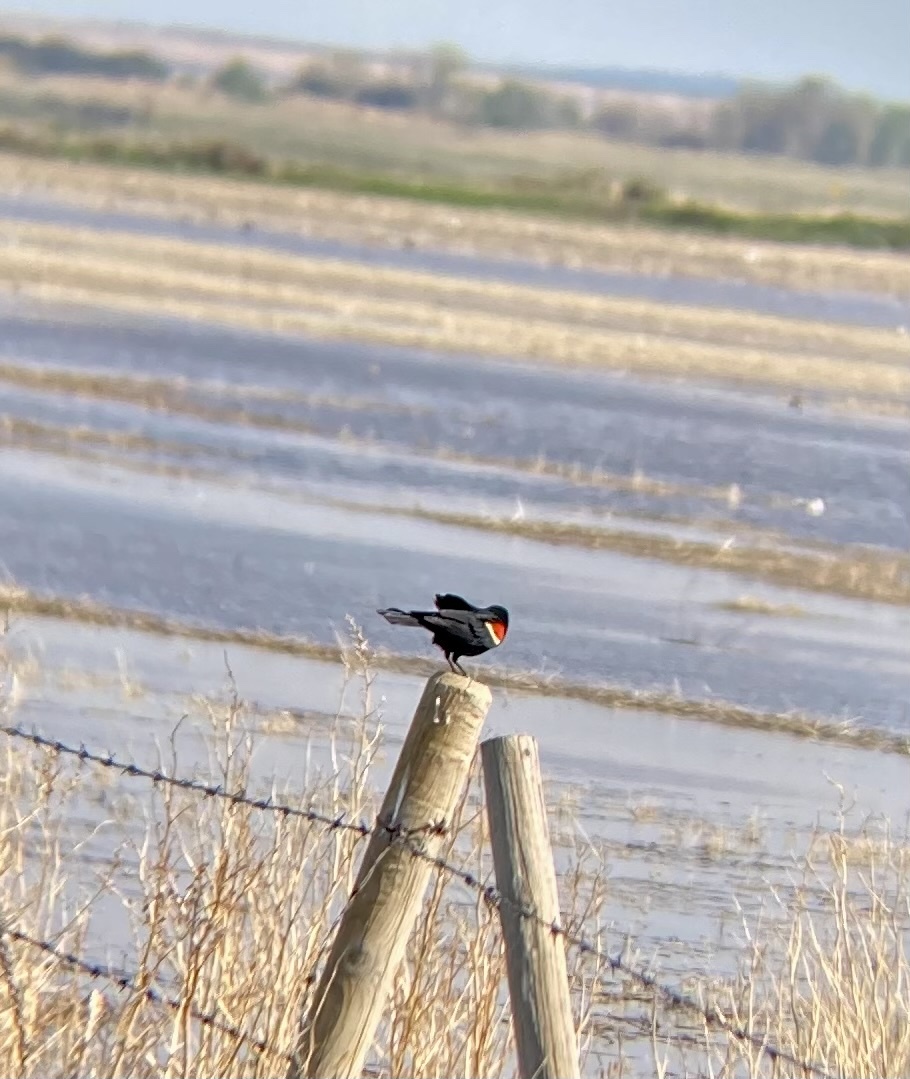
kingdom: Animalia
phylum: Chordata
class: Aves
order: Passeriformes
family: Icteridae
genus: Agelaius
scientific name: Agelaius phoeniceus
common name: Red-winged blackbird
